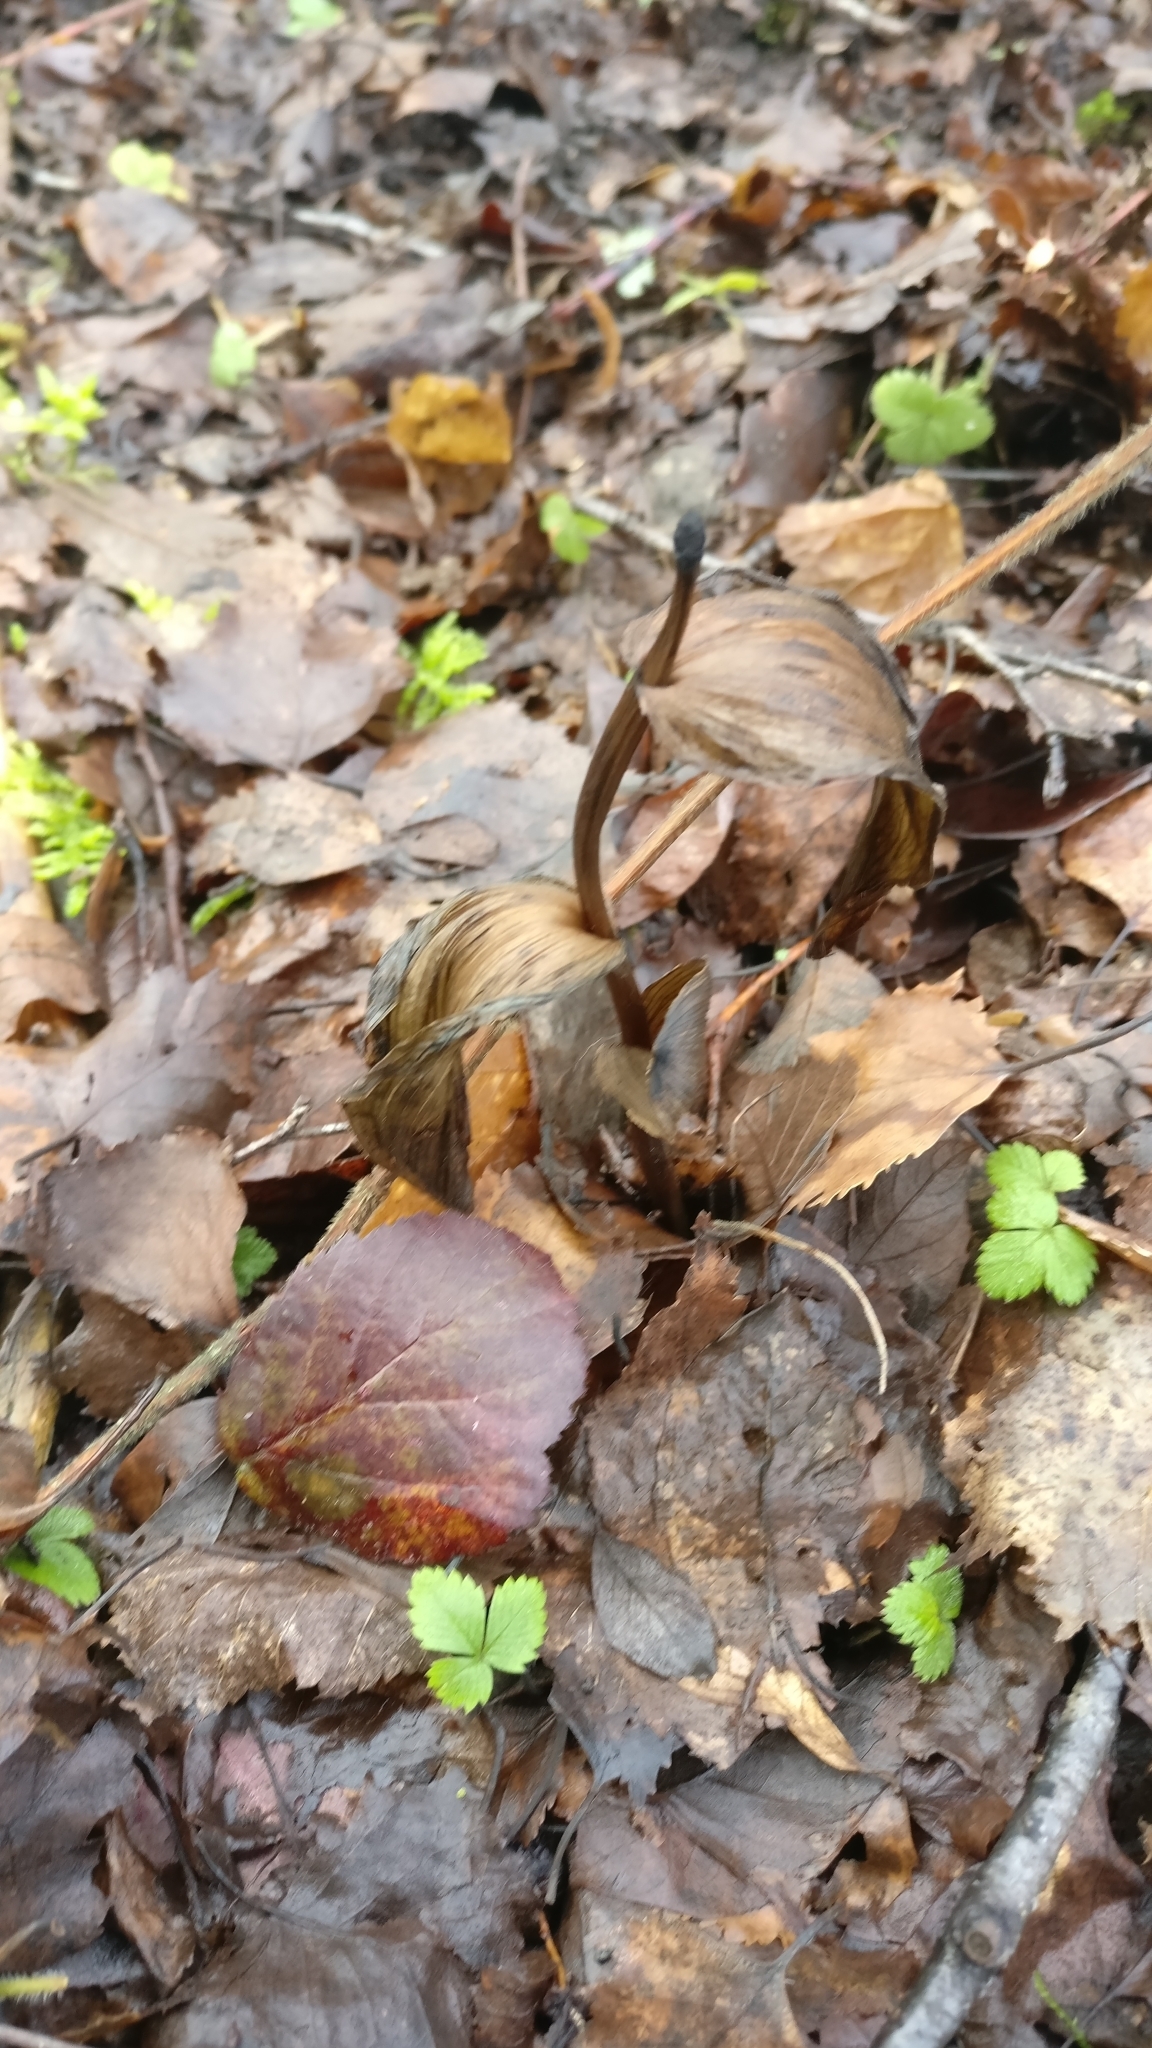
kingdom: Plantae
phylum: Tracheophyta
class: Liliopsida
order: Asparagales
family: Orchidaceae
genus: Epipactis
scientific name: Epipactis helleborine
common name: Broad-leaved helleborine
